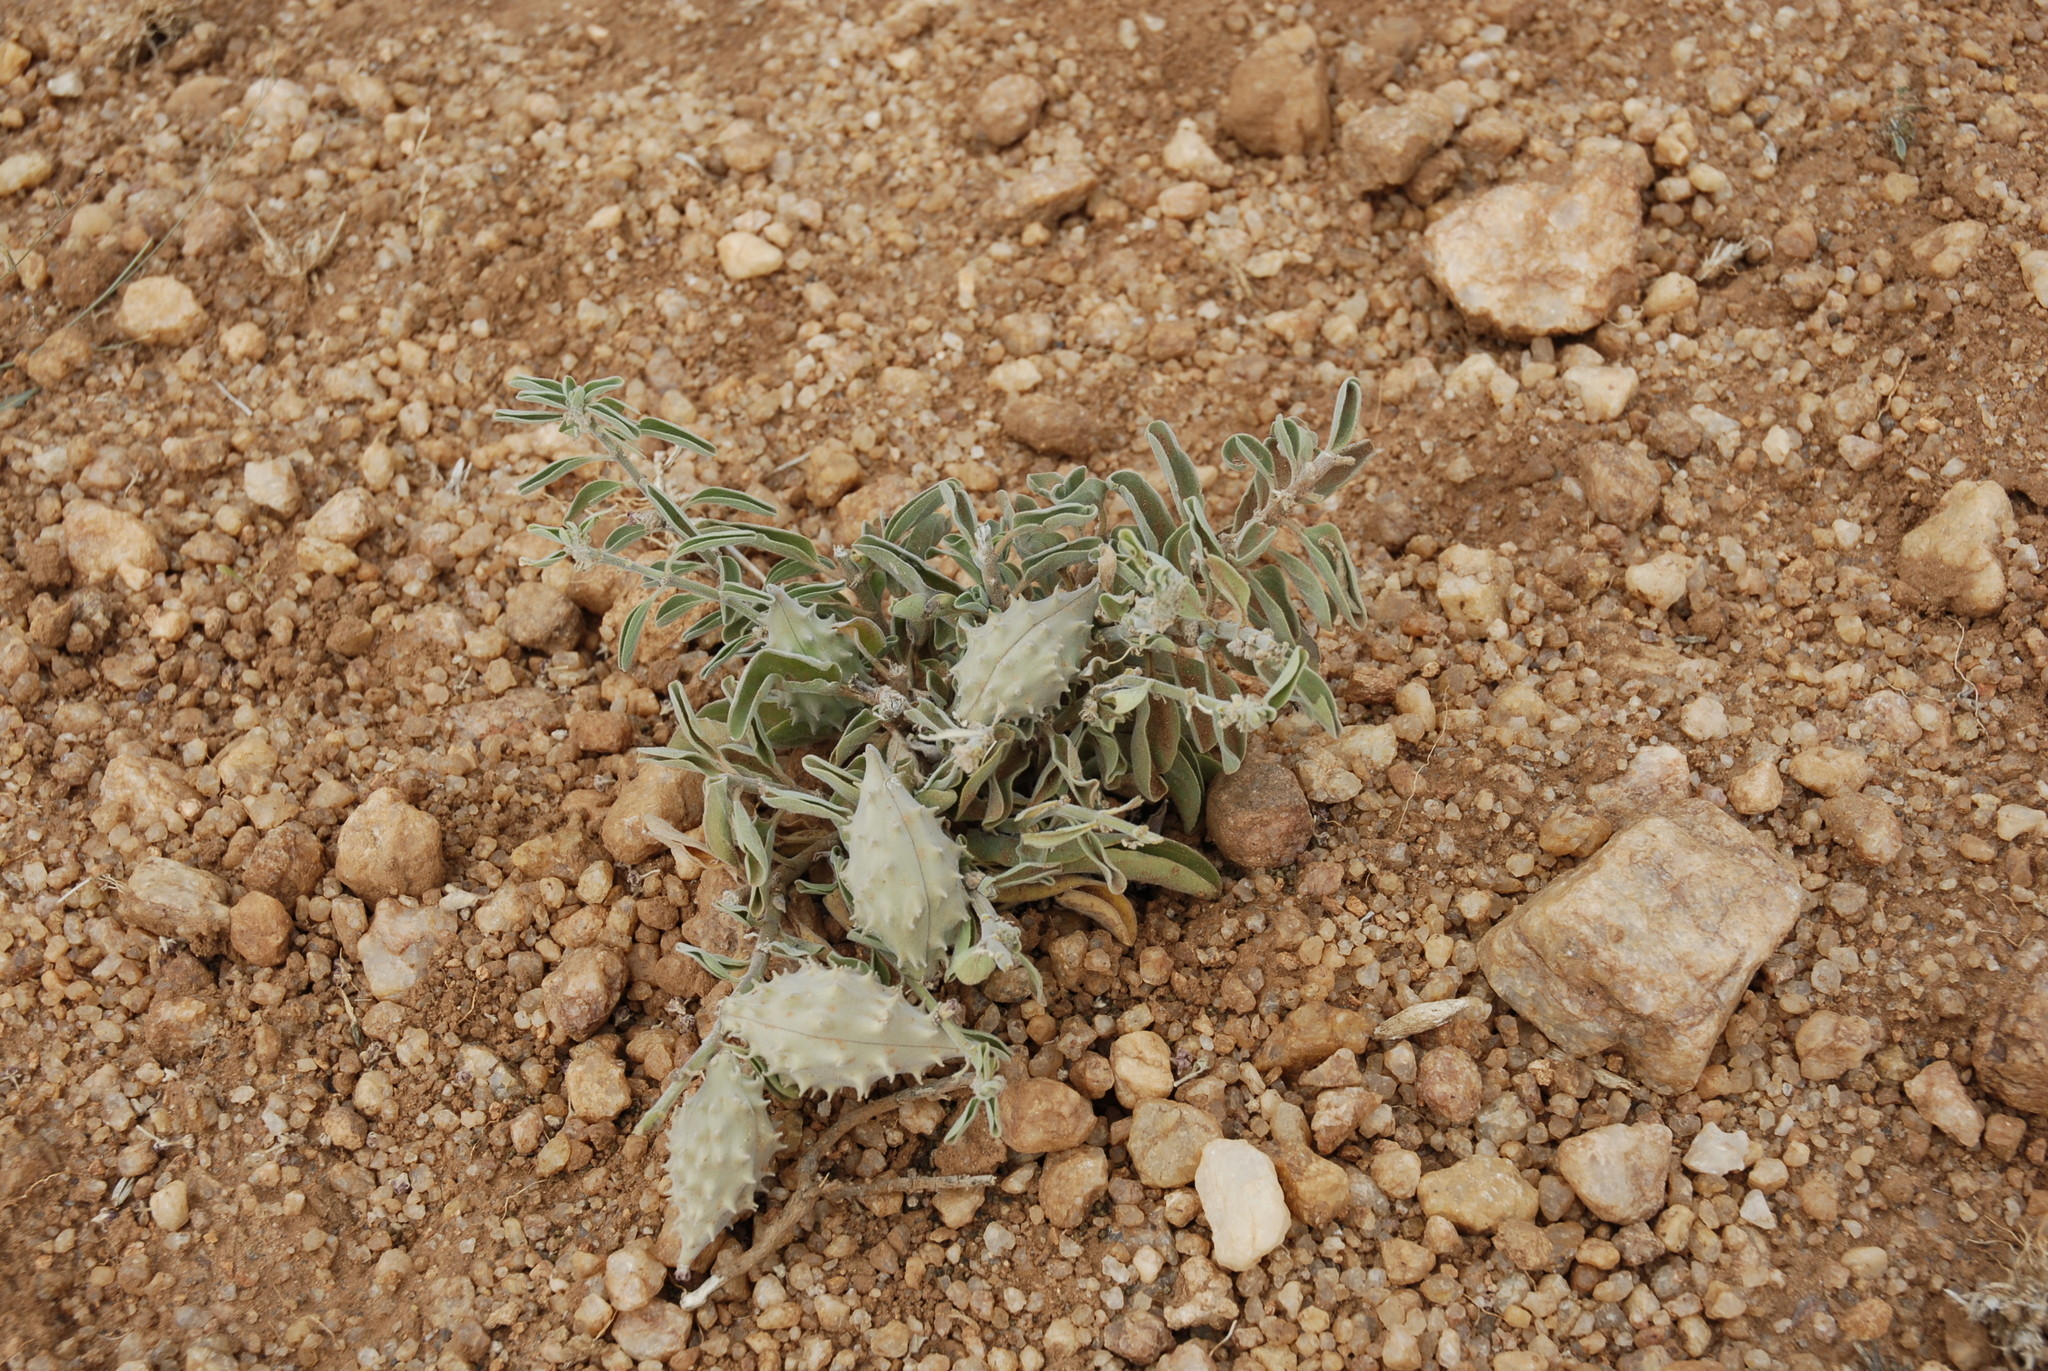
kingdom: Plantae
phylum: Tracheophyta
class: Magnoliopsida
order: Gentianales
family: Apocynaceae
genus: Cynanchum
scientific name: Cynanchum revoilii
